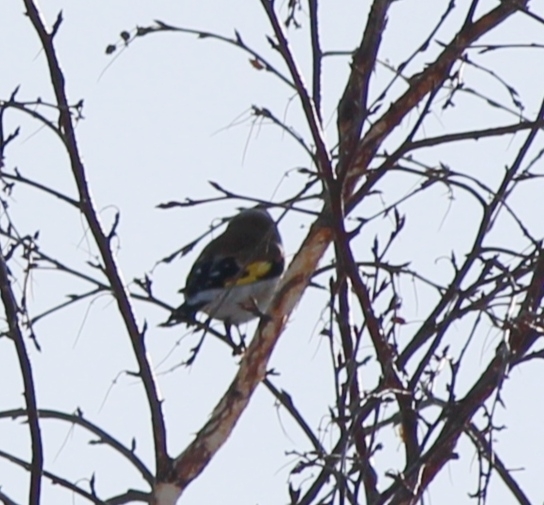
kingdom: Animalia
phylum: Chordata
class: Aves
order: Passeriformes
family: Fringillidae
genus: Carduelis
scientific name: Carduelis carduelis
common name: European goldfinch
